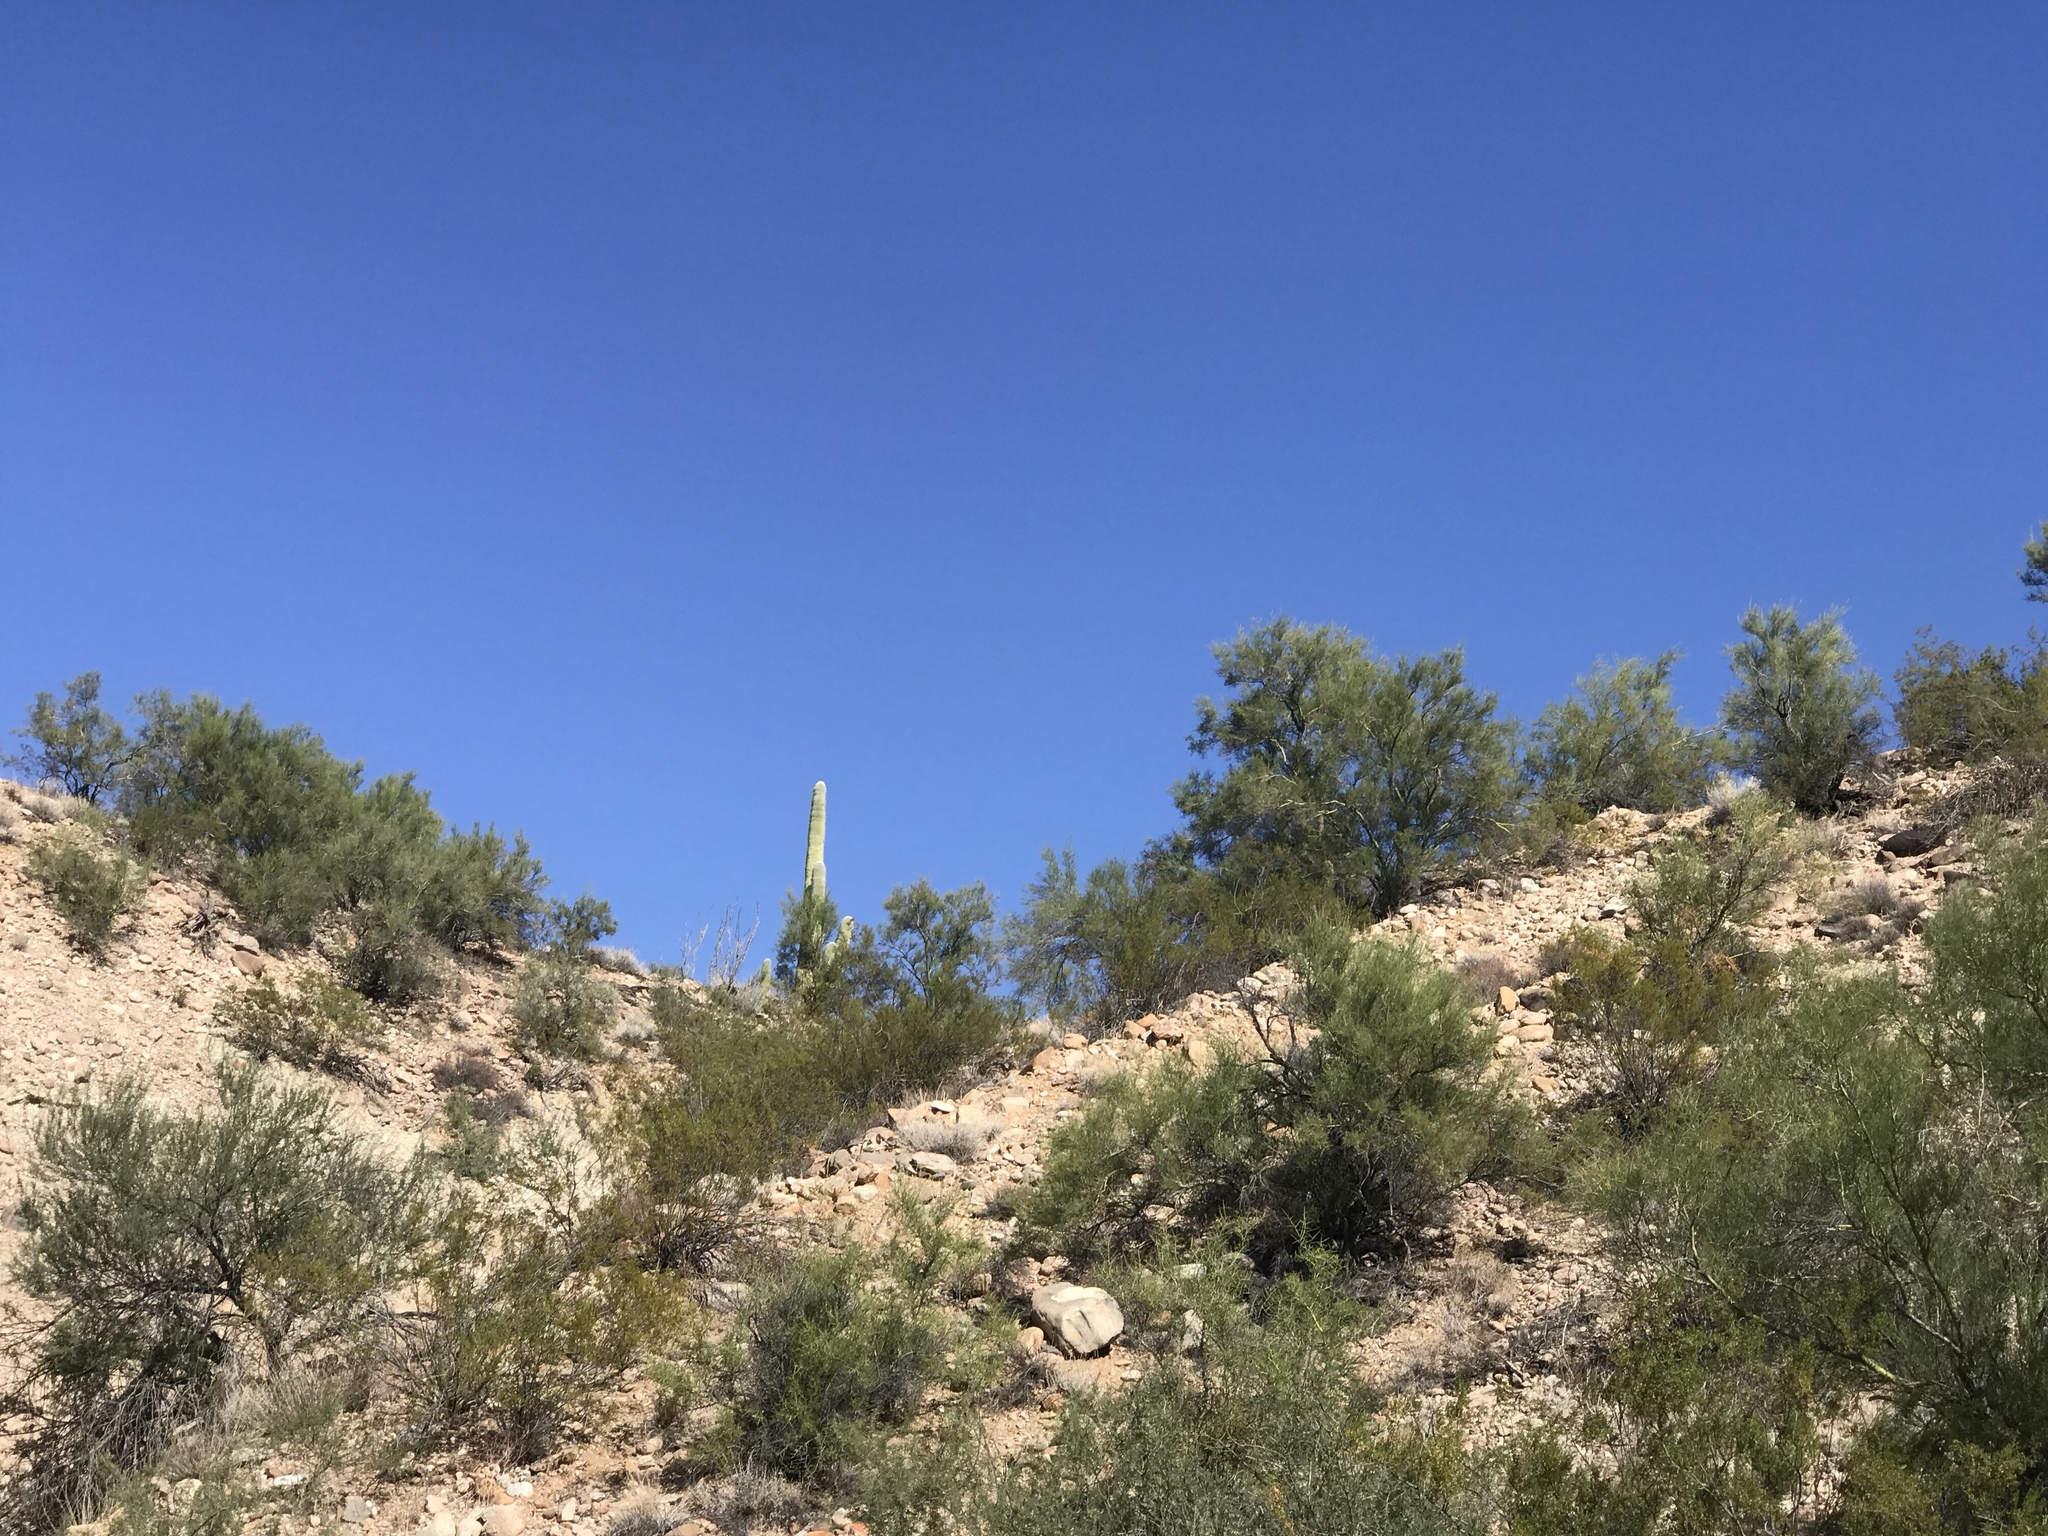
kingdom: Plantae
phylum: Tracheophyta
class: Magnoliopsida
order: Caryophyllales
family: Cactaceae
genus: Carnegiea
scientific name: Carnegiea gigantea
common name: Saguaro
